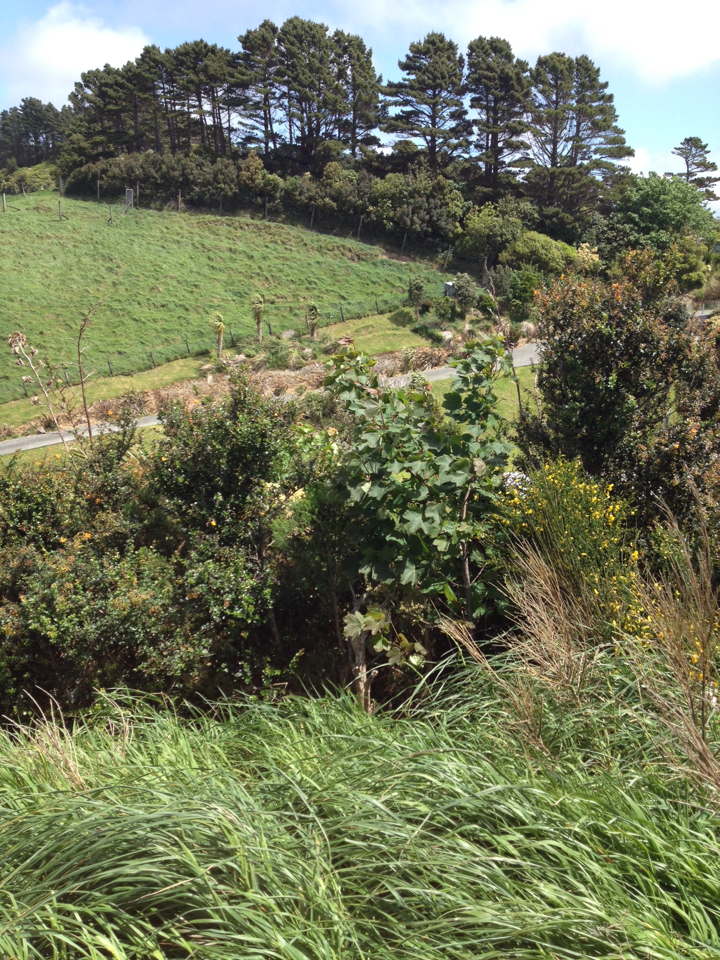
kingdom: Plantae
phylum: Tracheophyta
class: Magnoliopsida
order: Sapindales
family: Sapindaceae
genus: Acer
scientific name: Acer pseudoplatanus
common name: Sycamore
